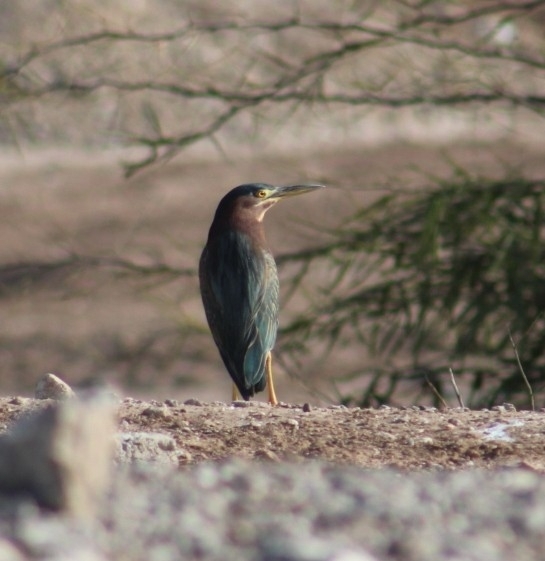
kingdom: Animalia
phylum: Chordata
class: Aves
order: Pelecaniformes
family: Ardeidae
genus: Butorides
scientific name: Butorides virescens
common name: Green heron
